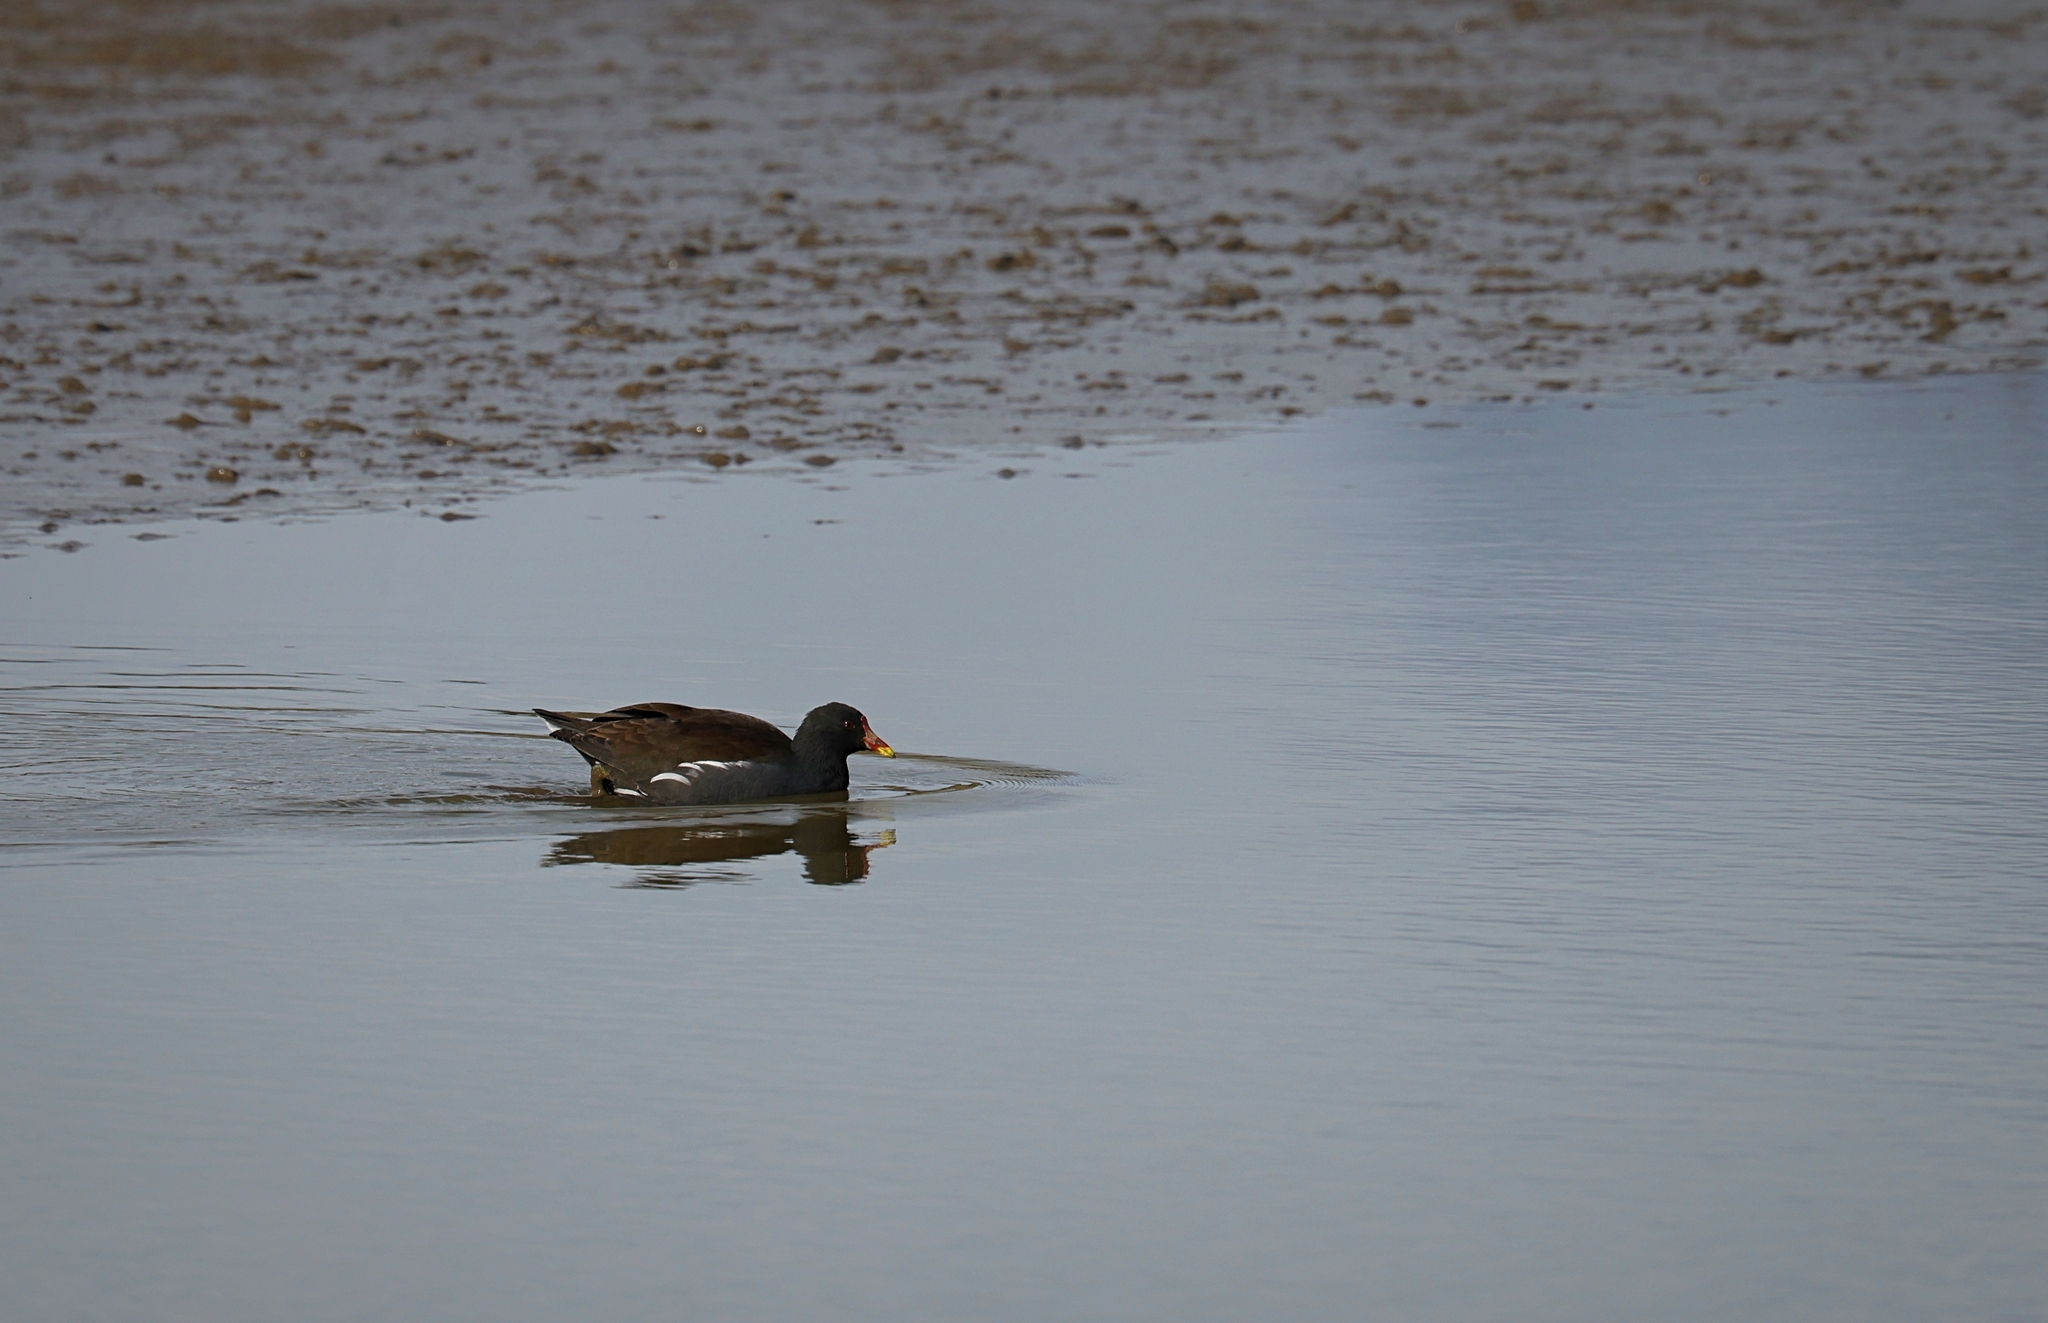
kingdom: Animalia
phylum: Chordata
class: Aves
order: Gruiformes
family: Rallidae
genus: Gallinula
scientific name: Gallinula chloropus
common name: Common moorhen
